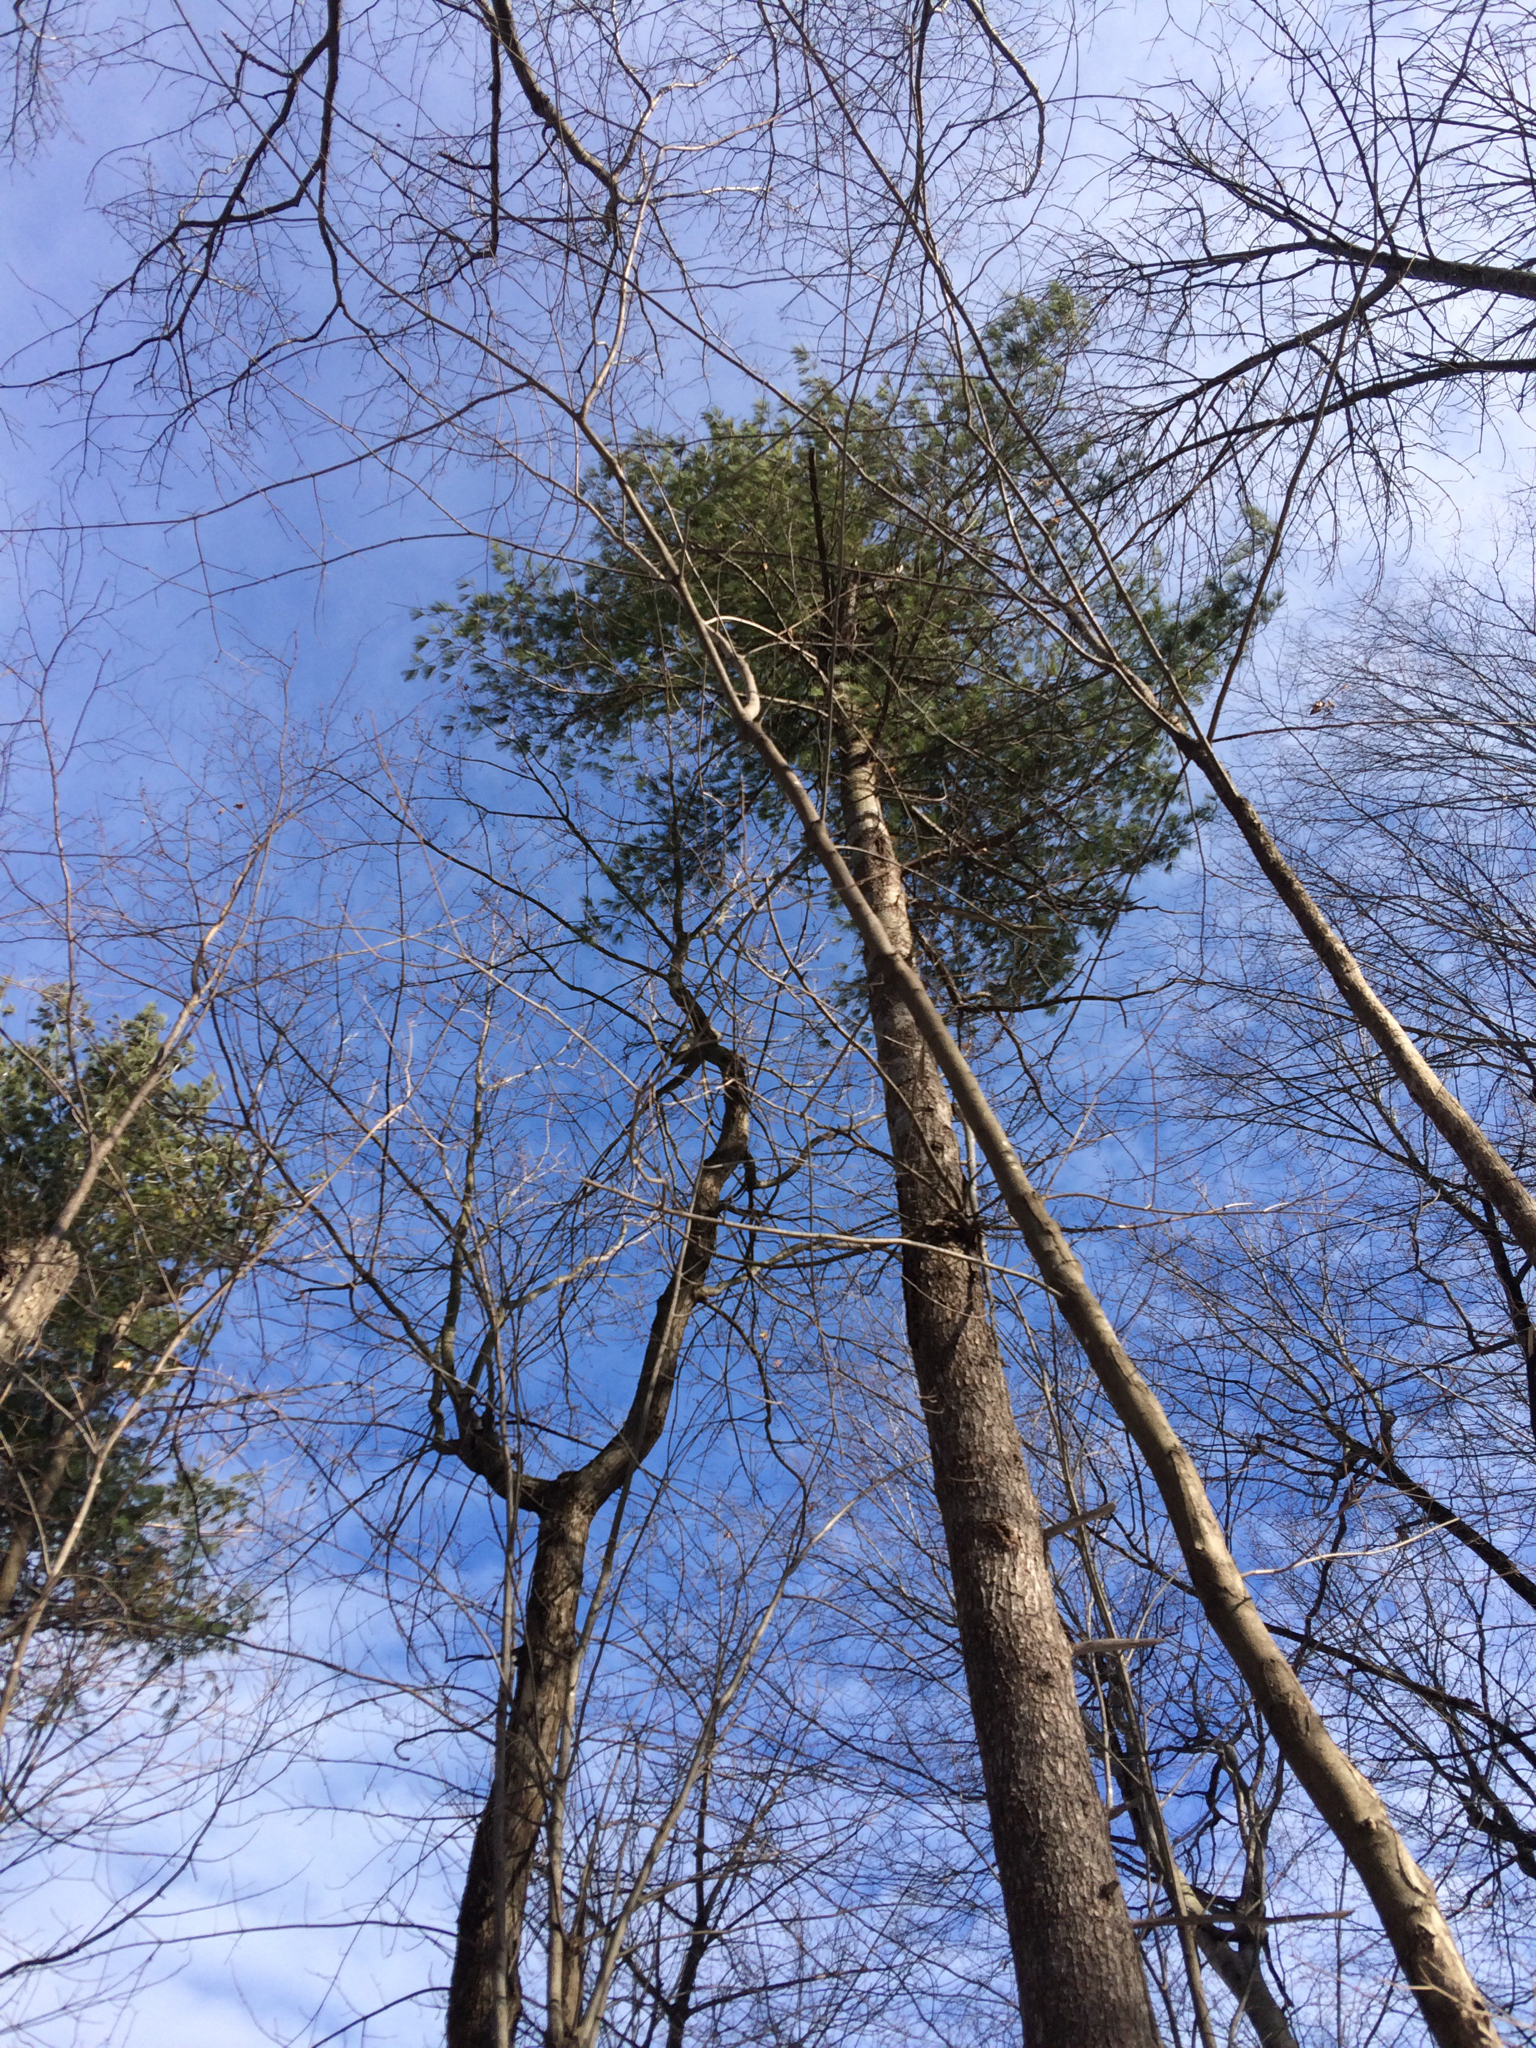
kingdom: Plantae
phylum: Tracheophyta
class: Pinopsida
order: Pinales
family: Pinaceae
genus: Pinus
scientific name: Pinus strobus
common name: Weymouth pine
